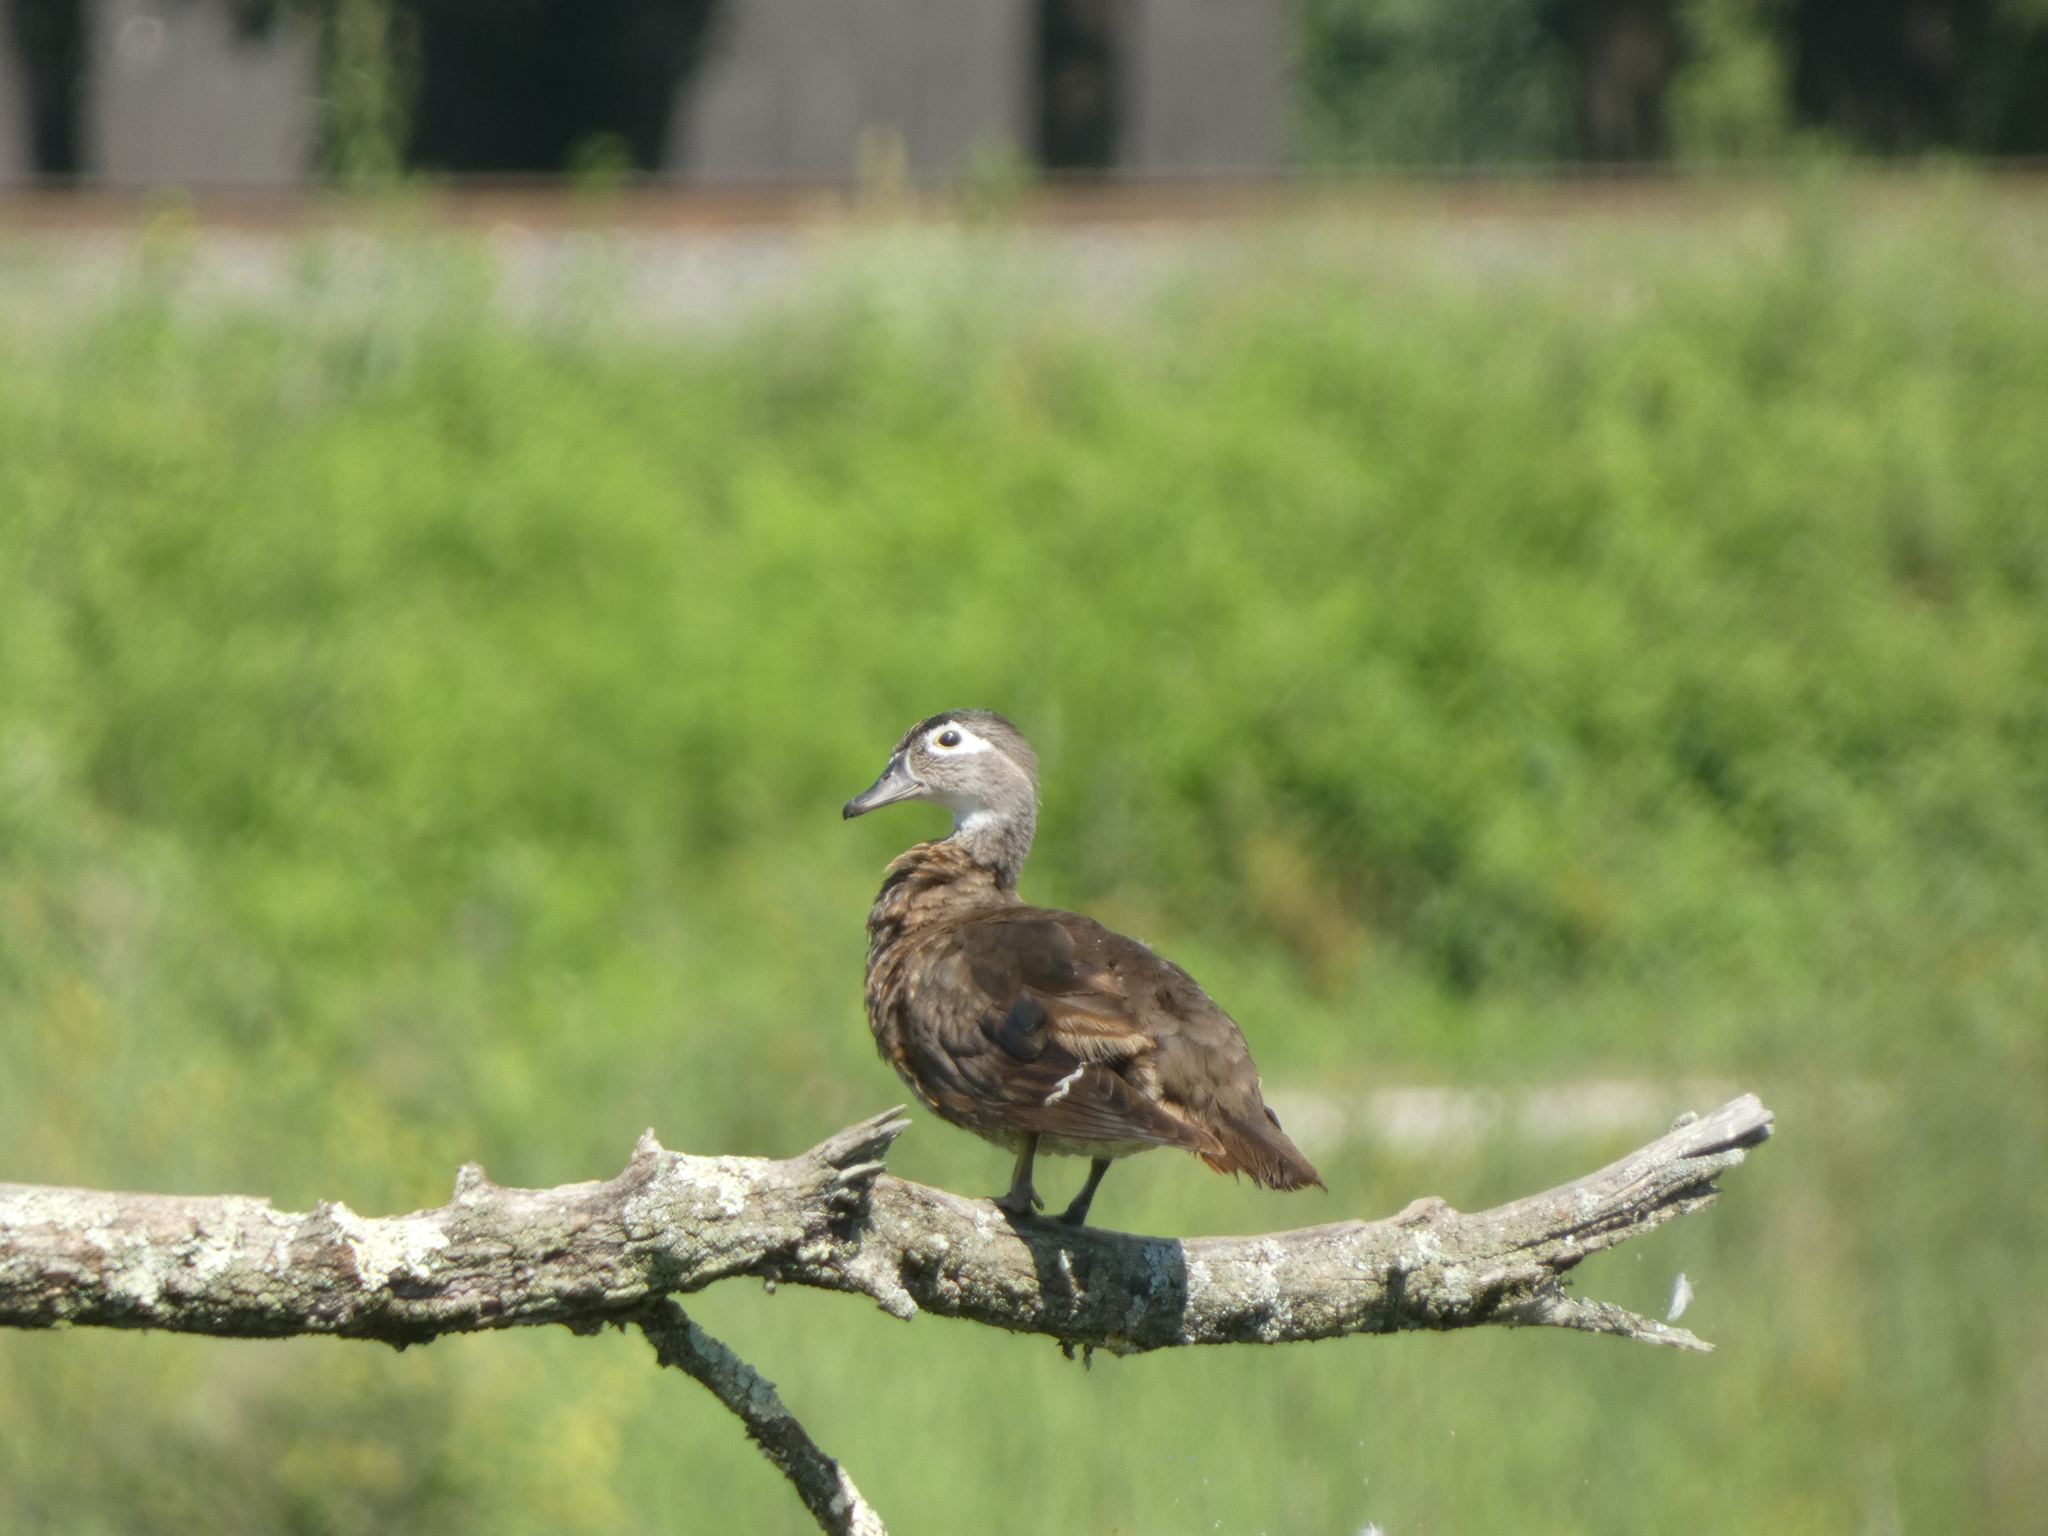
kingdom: Animalia
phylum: Chordata
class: Aves
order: Anseriformes
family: Anatidae
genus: Aix
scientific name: Aix sponsa
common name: Wood duck
